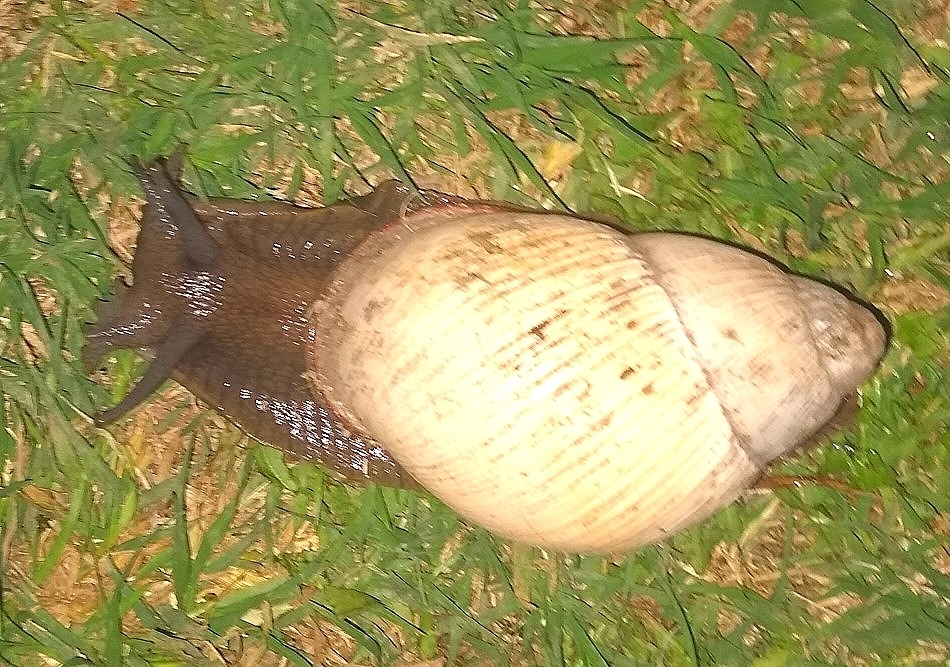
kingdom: Animalia
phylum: Mollusca
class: Gastropoda
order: Stylommatophora
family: Strophocheilidae
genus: Megalobulimus
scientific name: Megalobulimus
